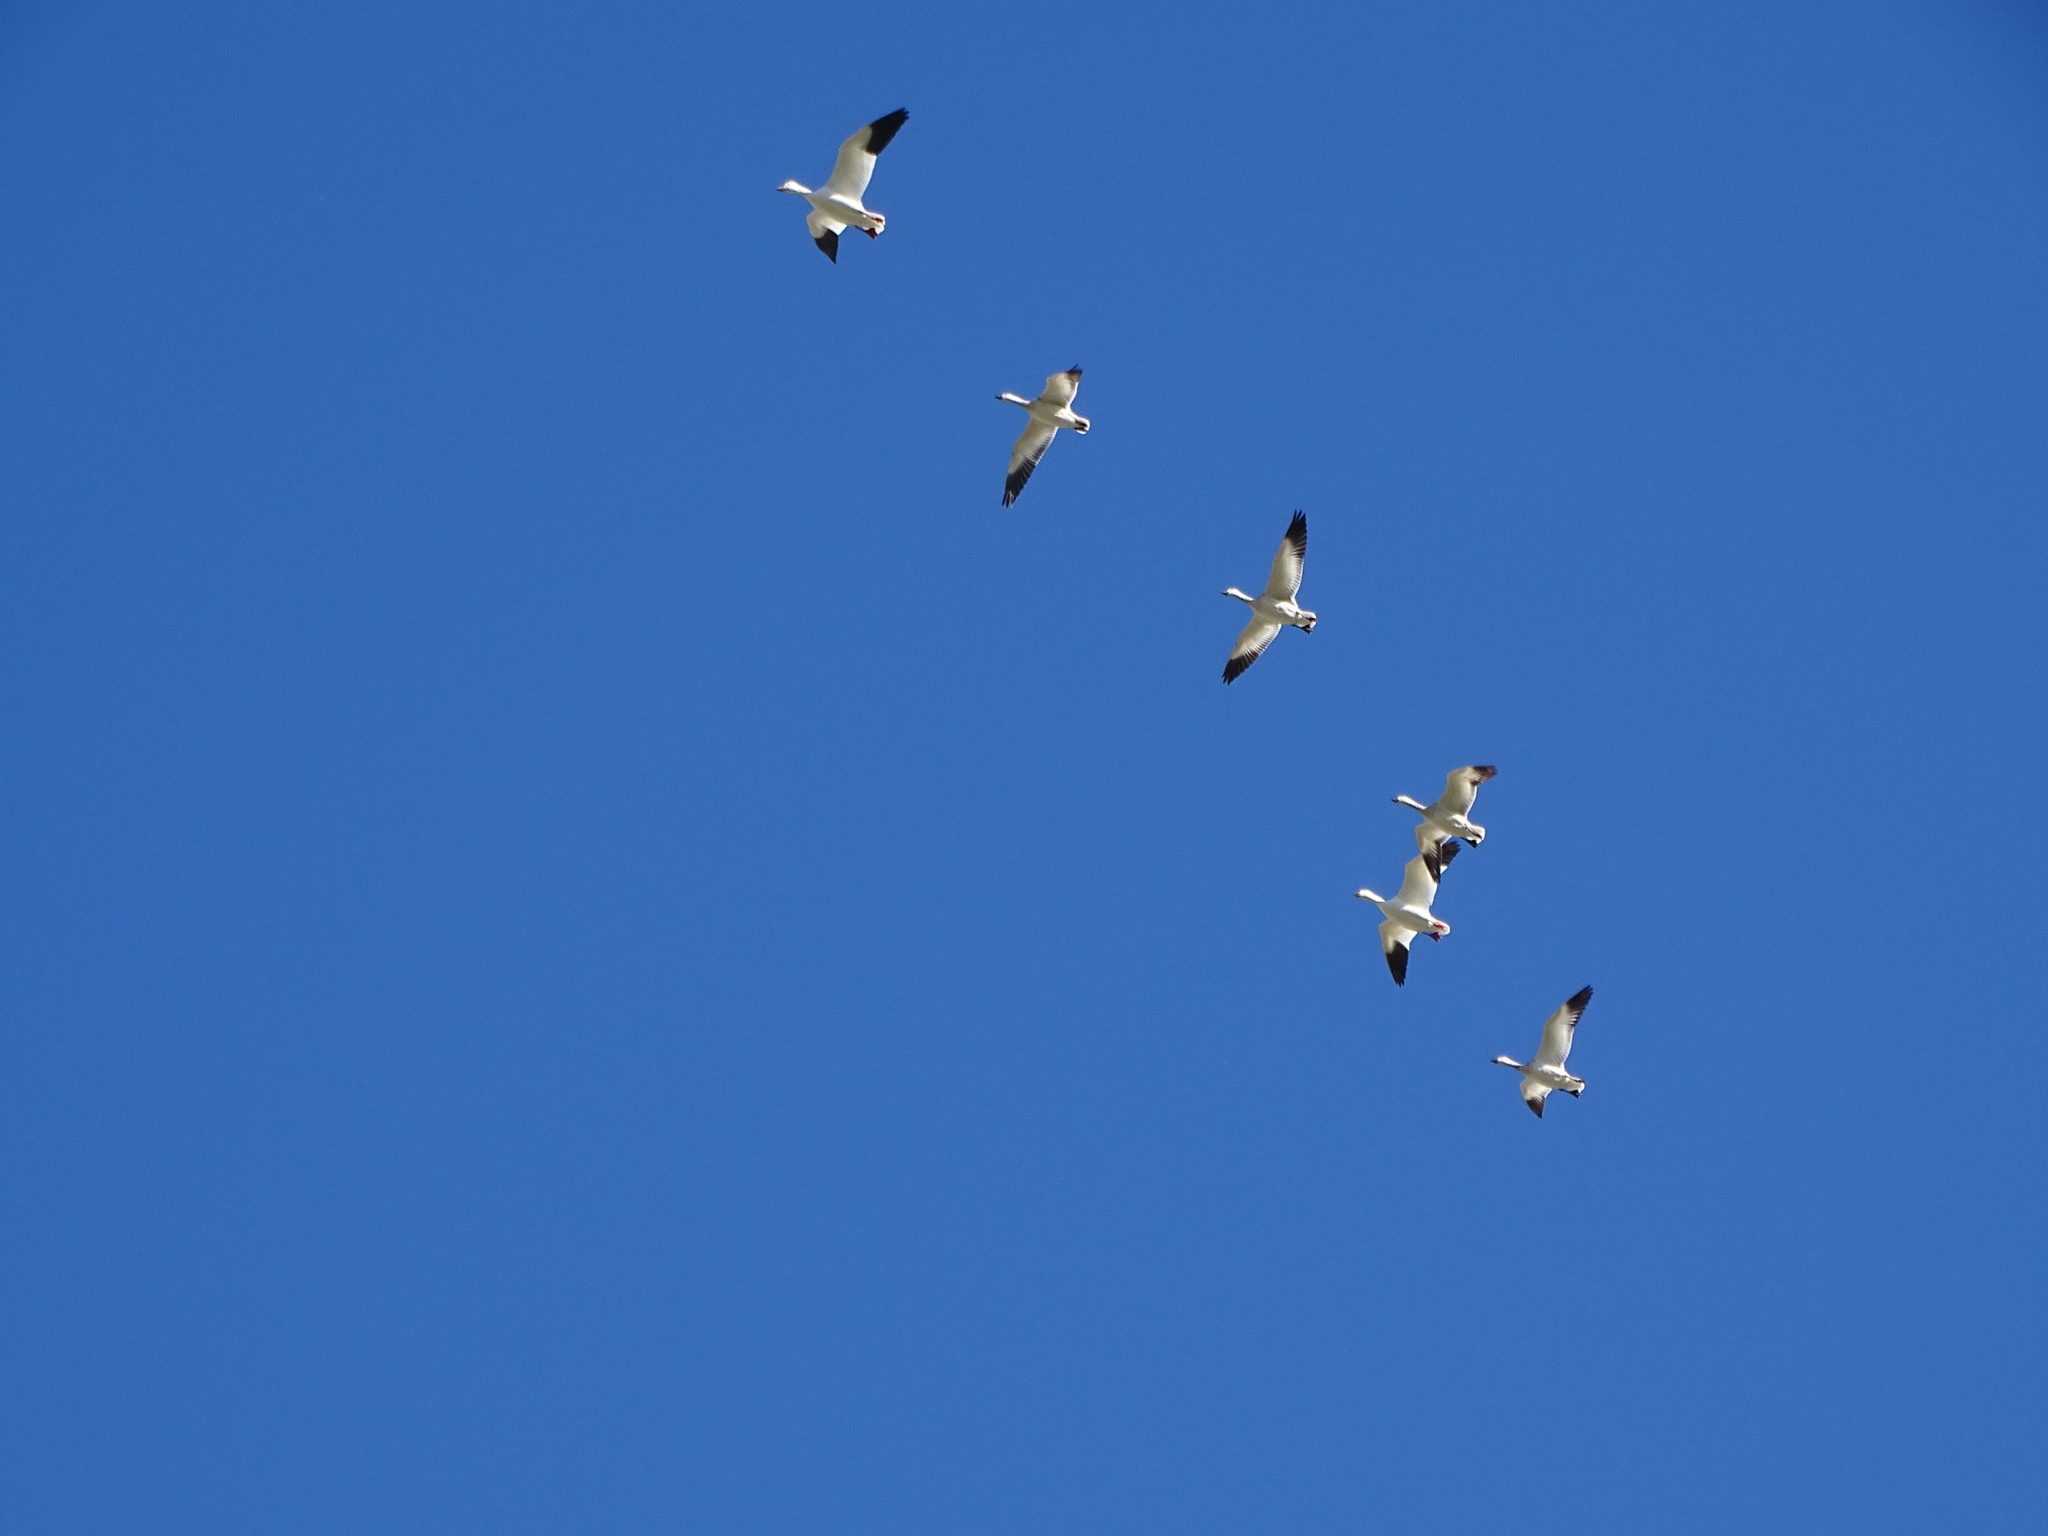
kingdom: Animalia
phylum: Chordata
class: Aves
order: Anseriformes
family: Anatidae
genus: Anser
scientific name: Anser caerulescens
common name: Snow goose
